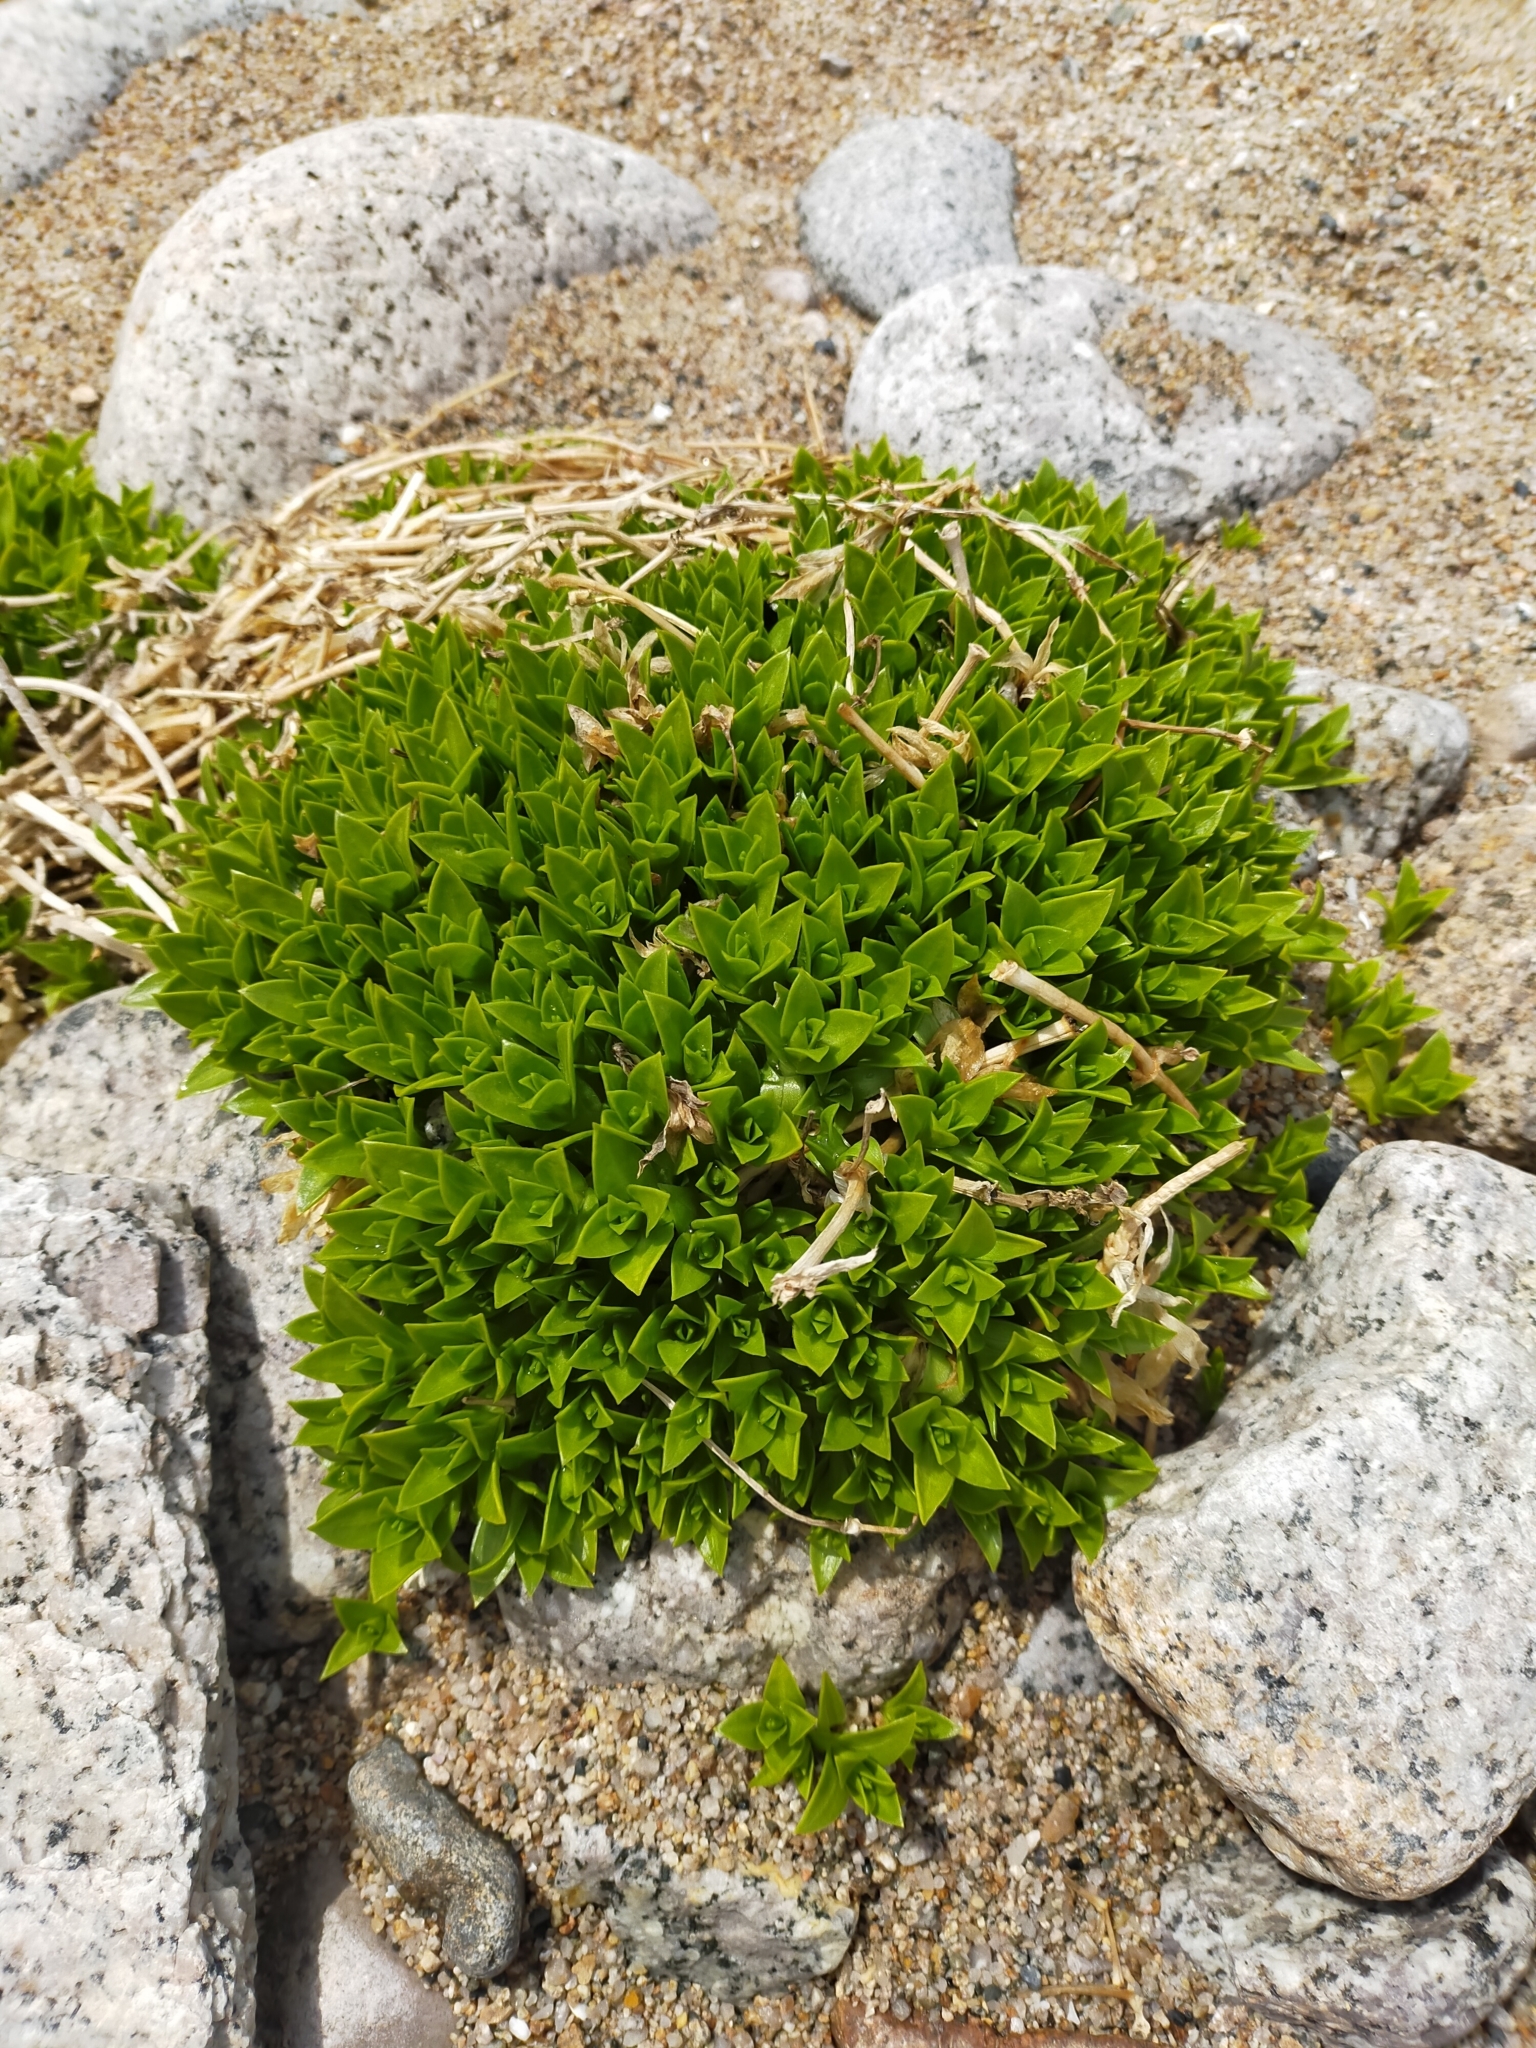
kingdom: Plantae
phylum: Tracheophyta
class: Magnoliopsida
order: Caryophyllales
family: Caryophyllaceae
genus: Honckenya
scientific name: Honckenya peploides
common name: Sea sandwort
